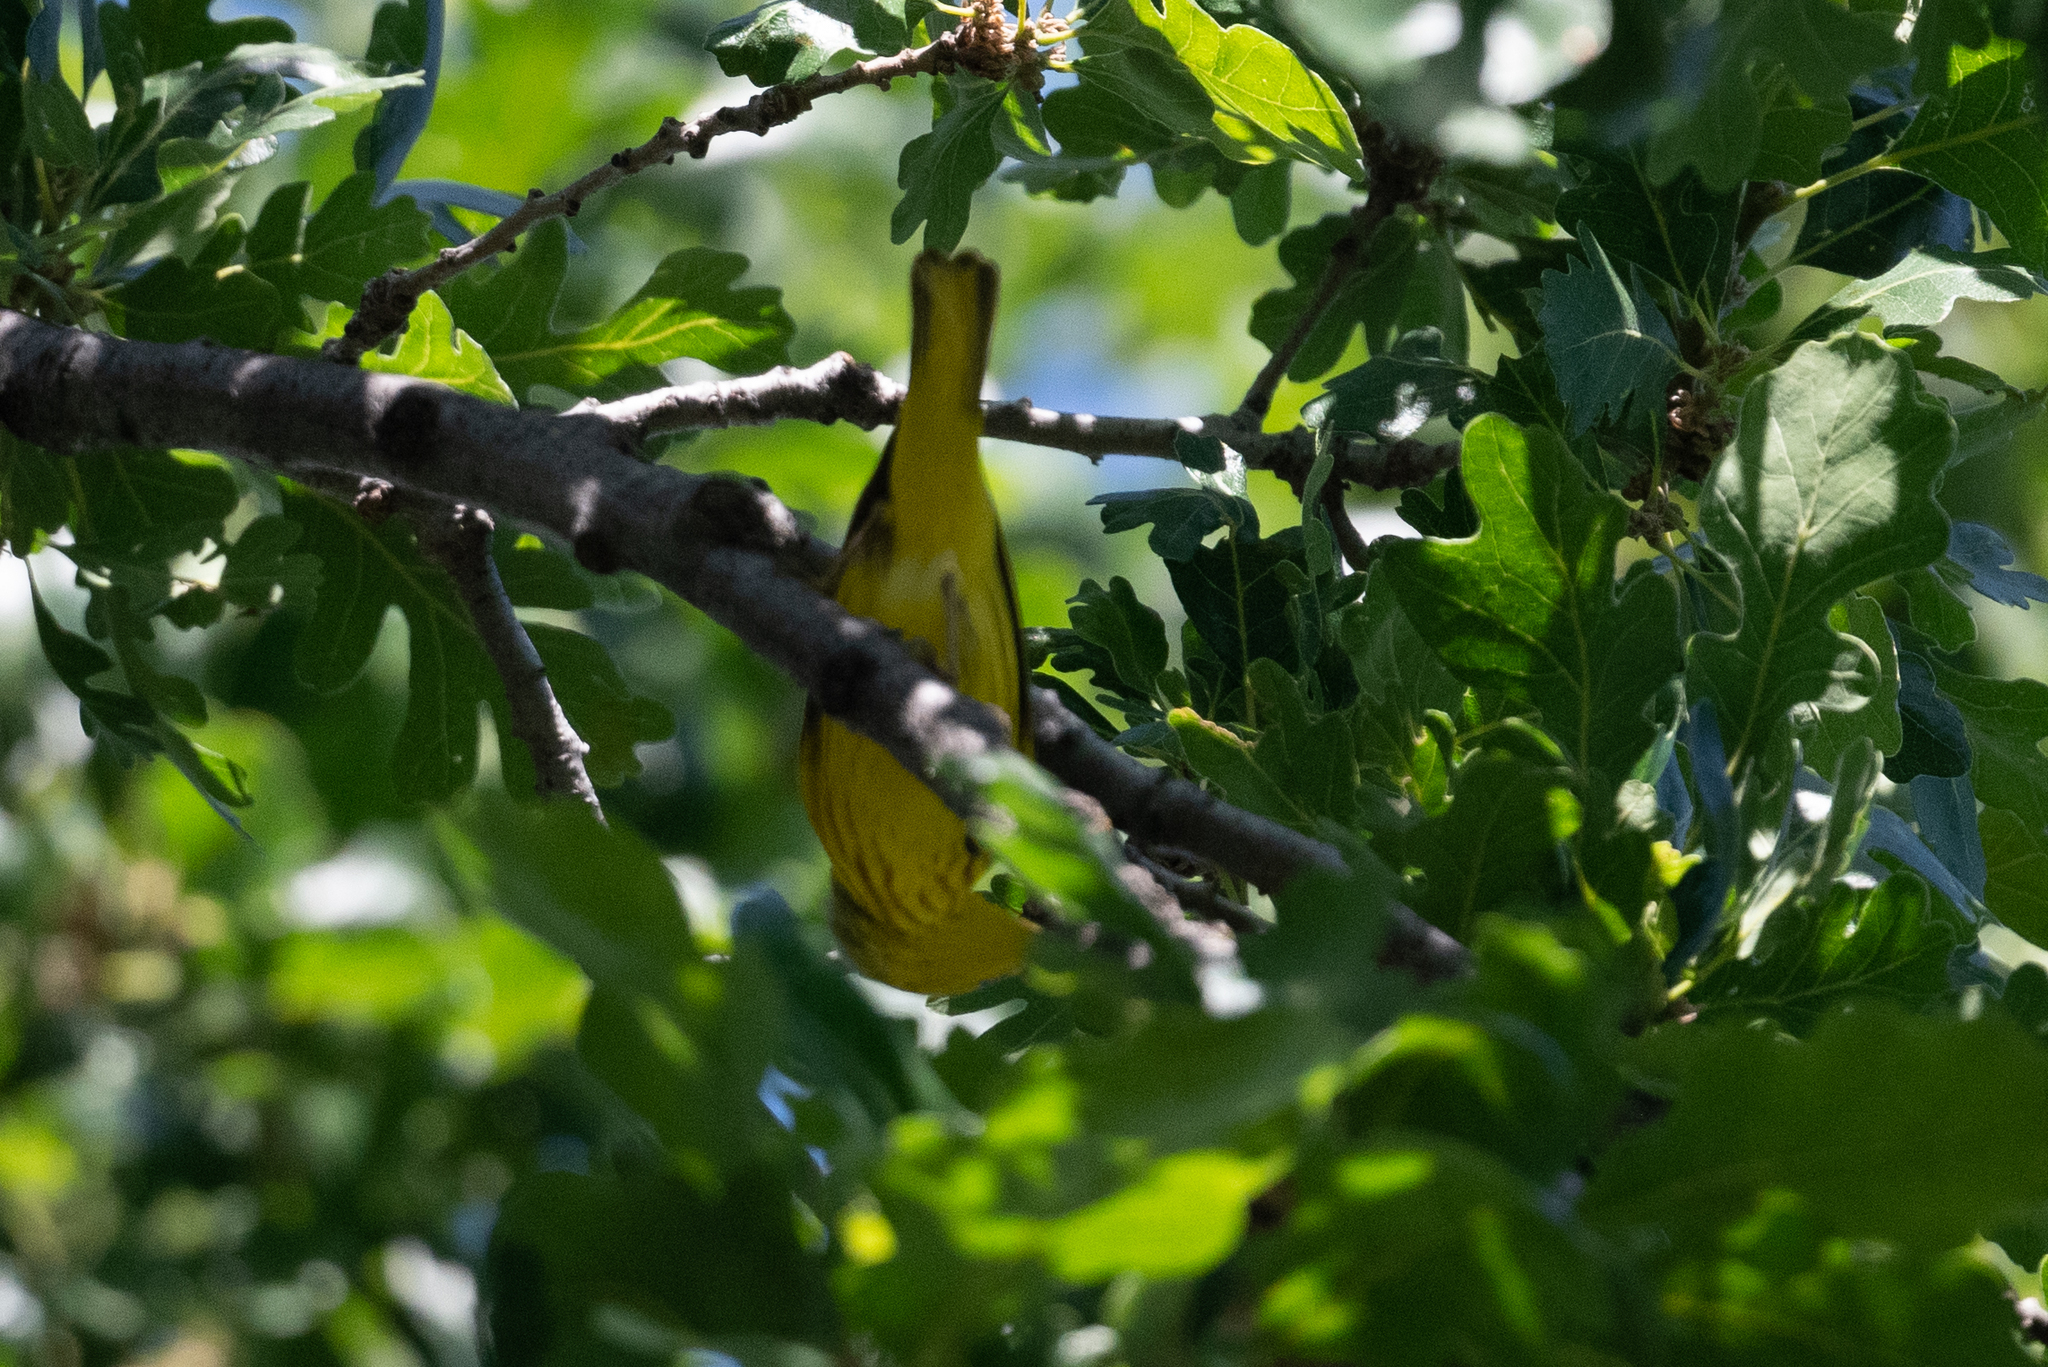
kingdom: Animalia
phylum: Chordata
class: Aves
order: Passeriformes
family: Parulidae
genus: Setophaga
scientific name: Setophaga petechia
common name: Yellow warbler
